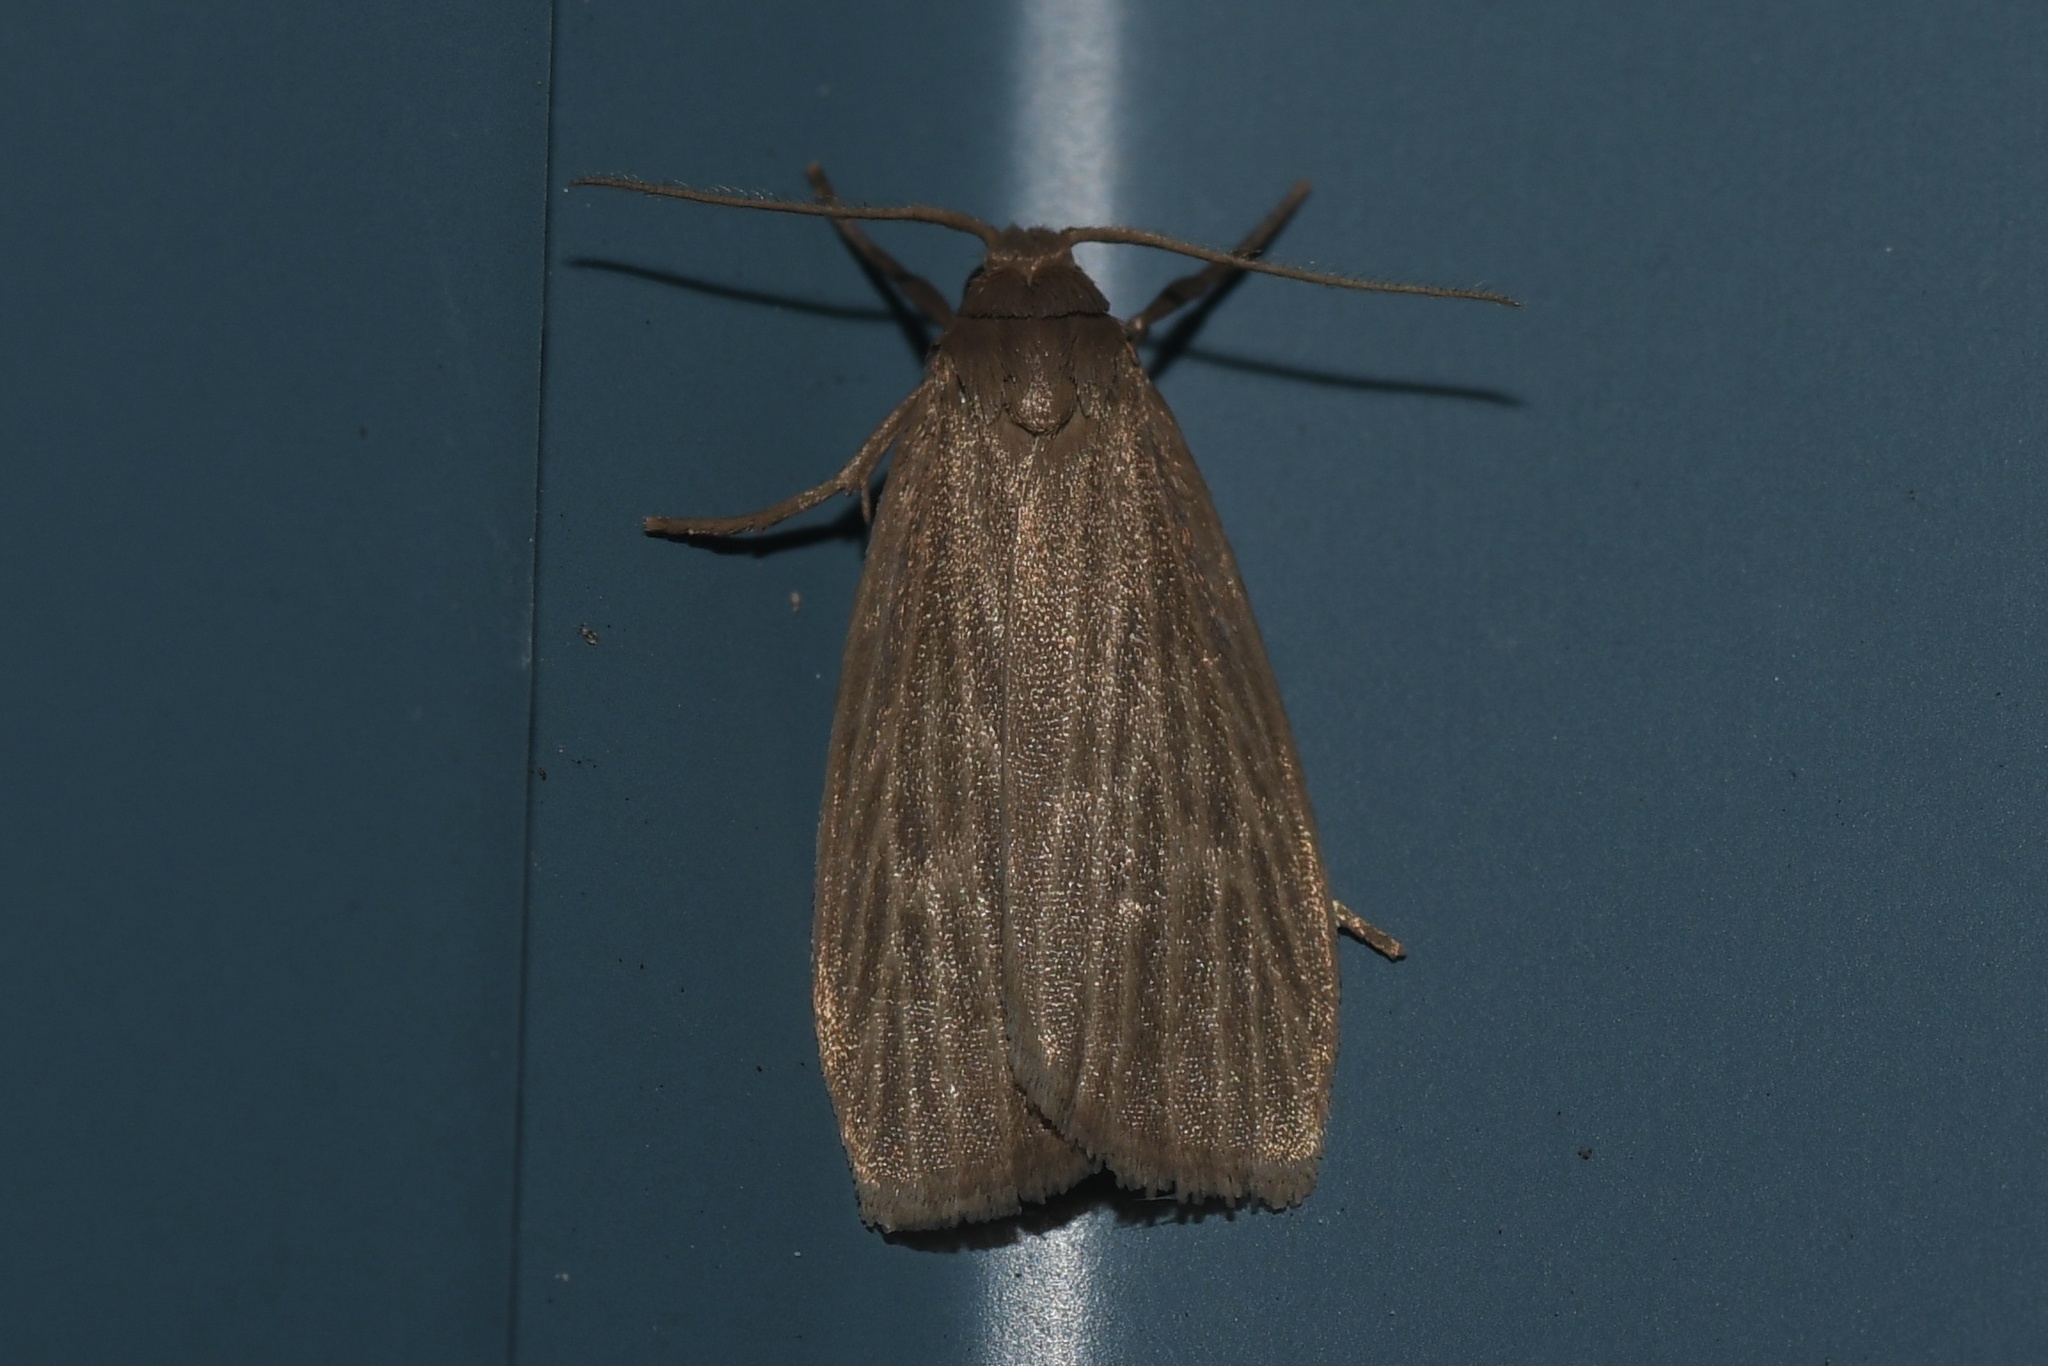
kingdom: Animalia
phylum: Arthropoda
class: Insecta
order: Lepidoptera
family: Erebidae
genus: Crambidia
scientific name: Crambidia pallida
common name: Pale lichen moth
